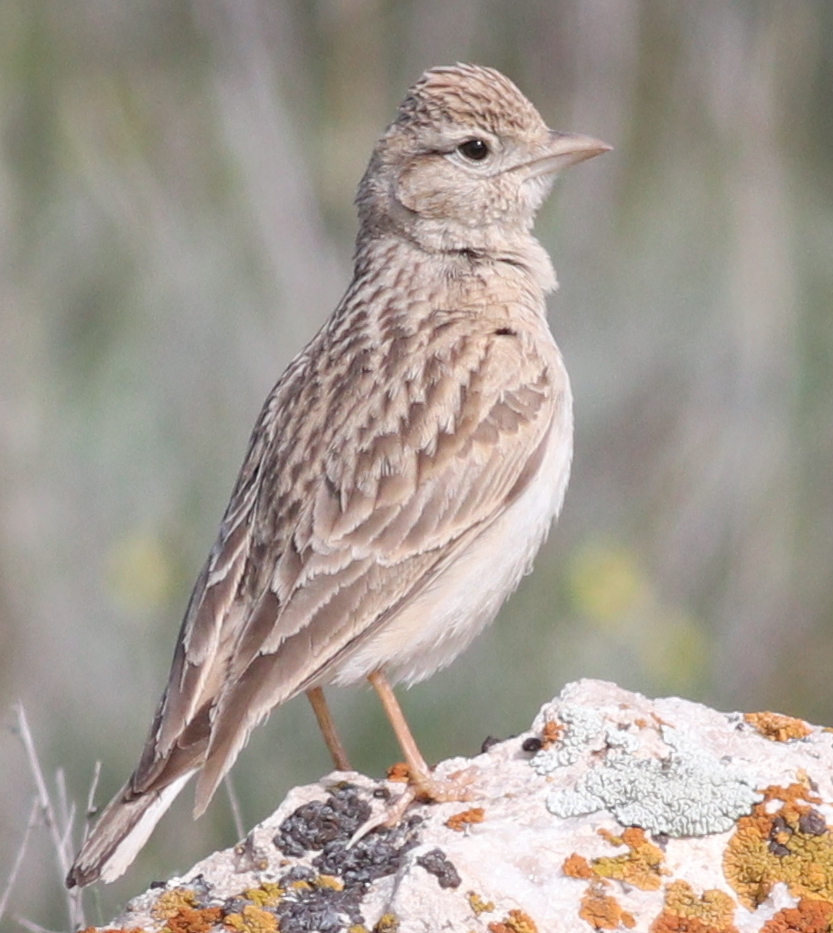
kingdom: Animalia
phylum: Chordata
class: Aves
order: Passeriformes
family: Alaudidae
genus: Calandrella
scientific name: Calandrella brachydactyla
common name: Greater short-toed lark
